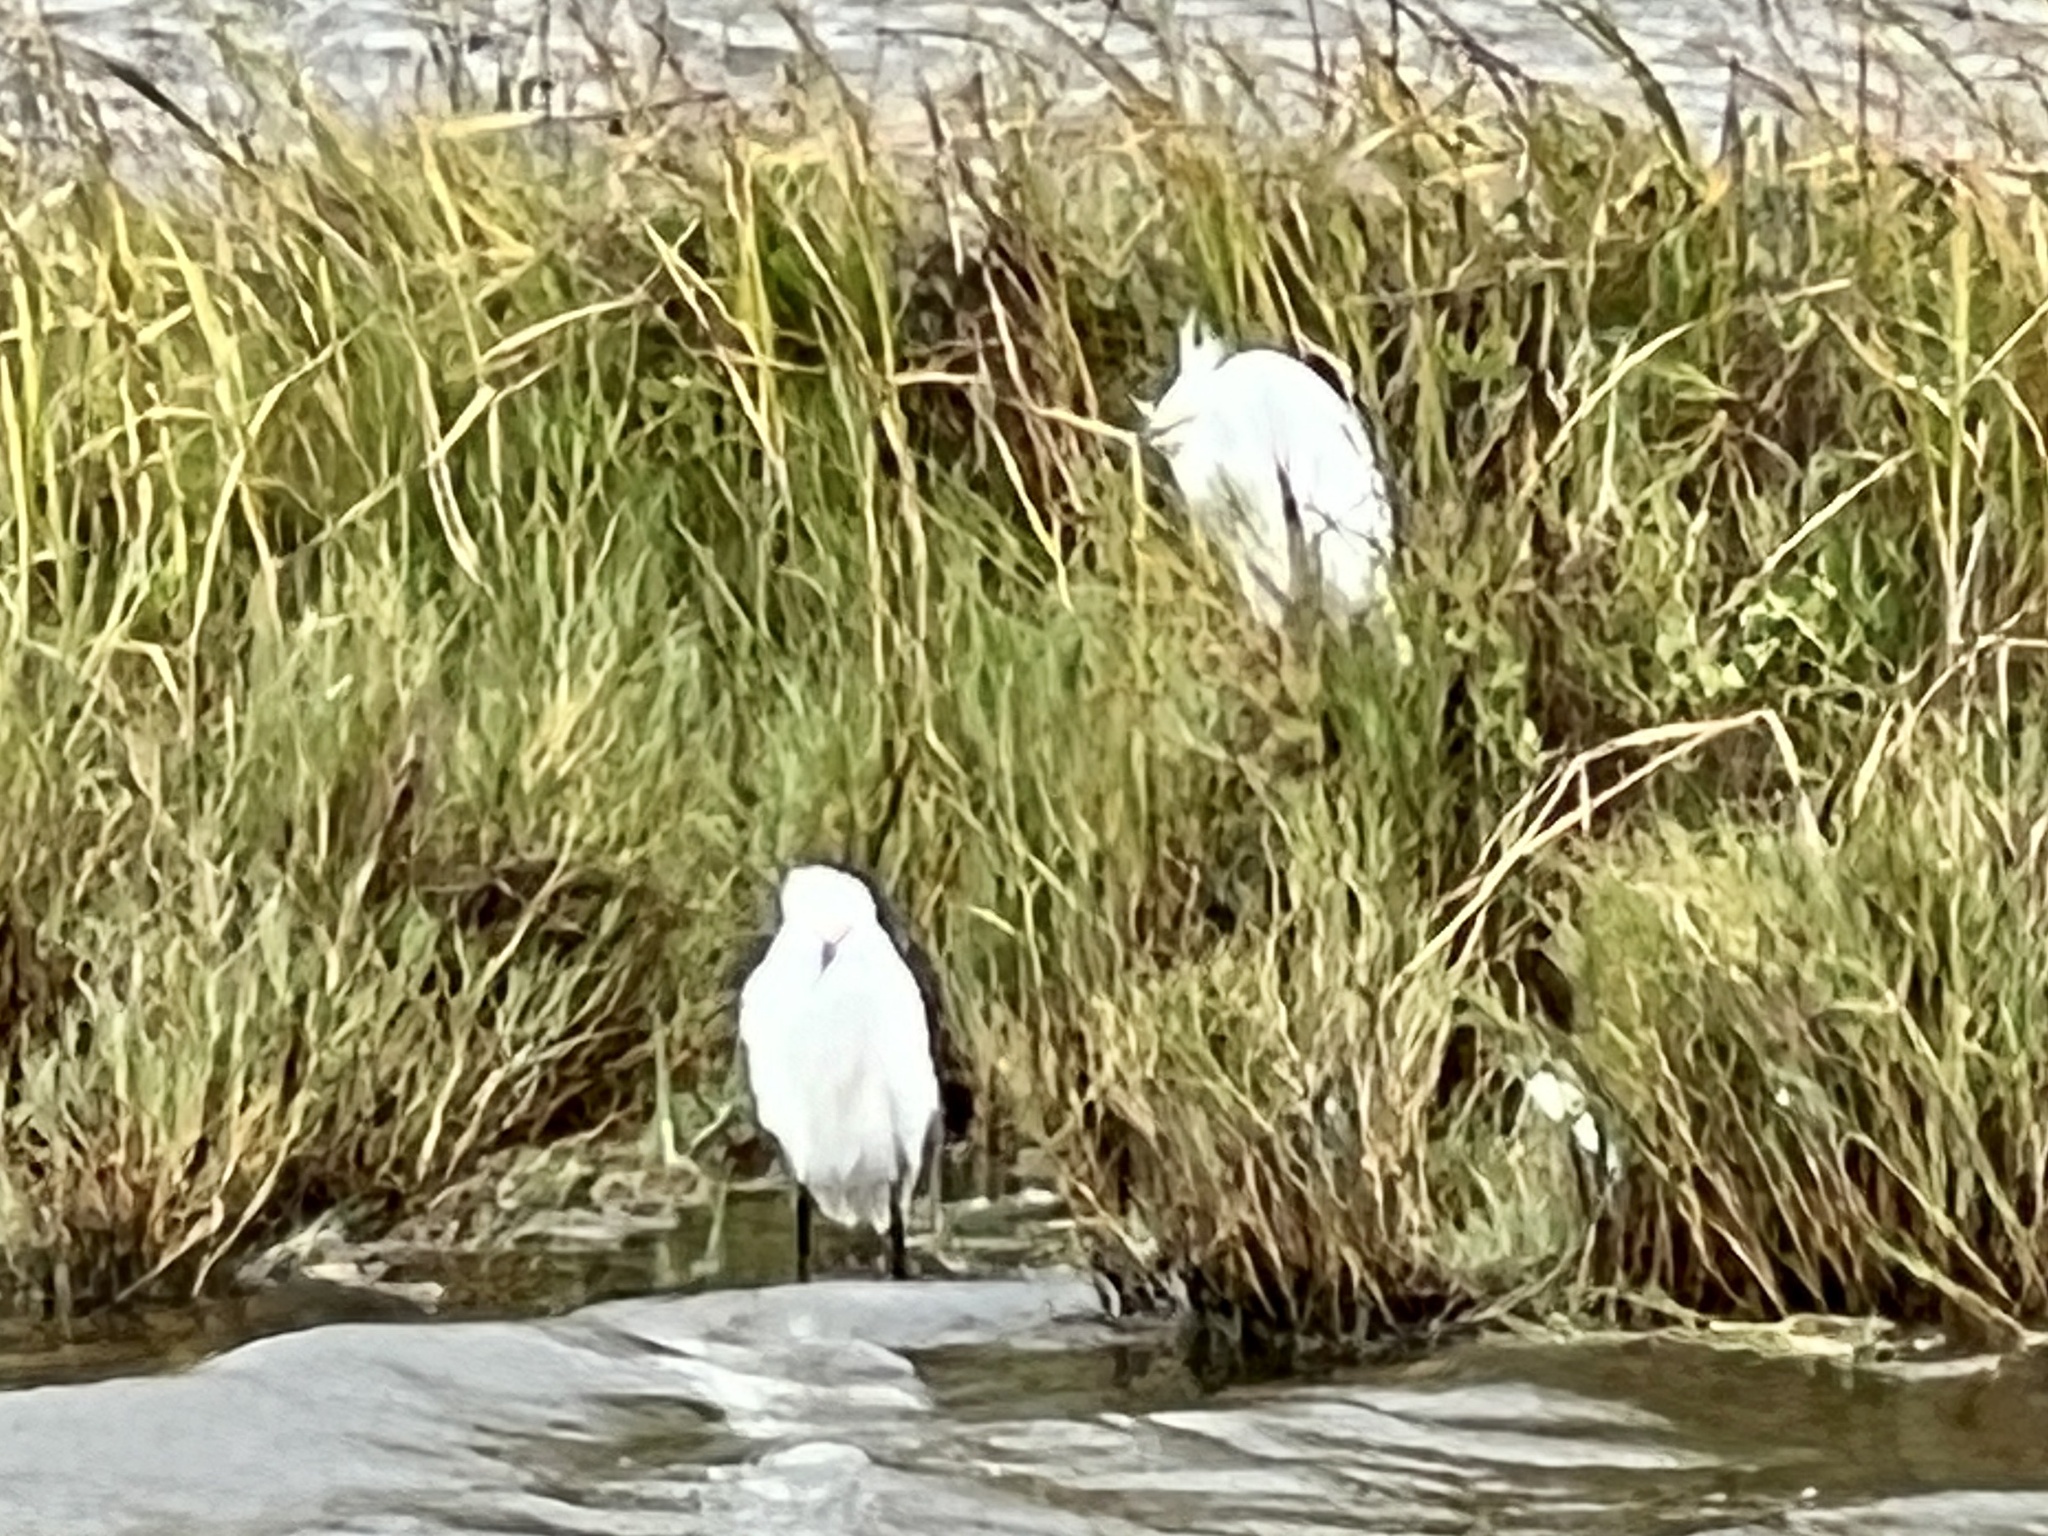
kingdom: Animalia
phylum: Chordata
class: Aves
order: Pelecaniformes
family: Ardeidae
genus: Egretta
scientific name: Egretta thula
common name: Snowy egret
